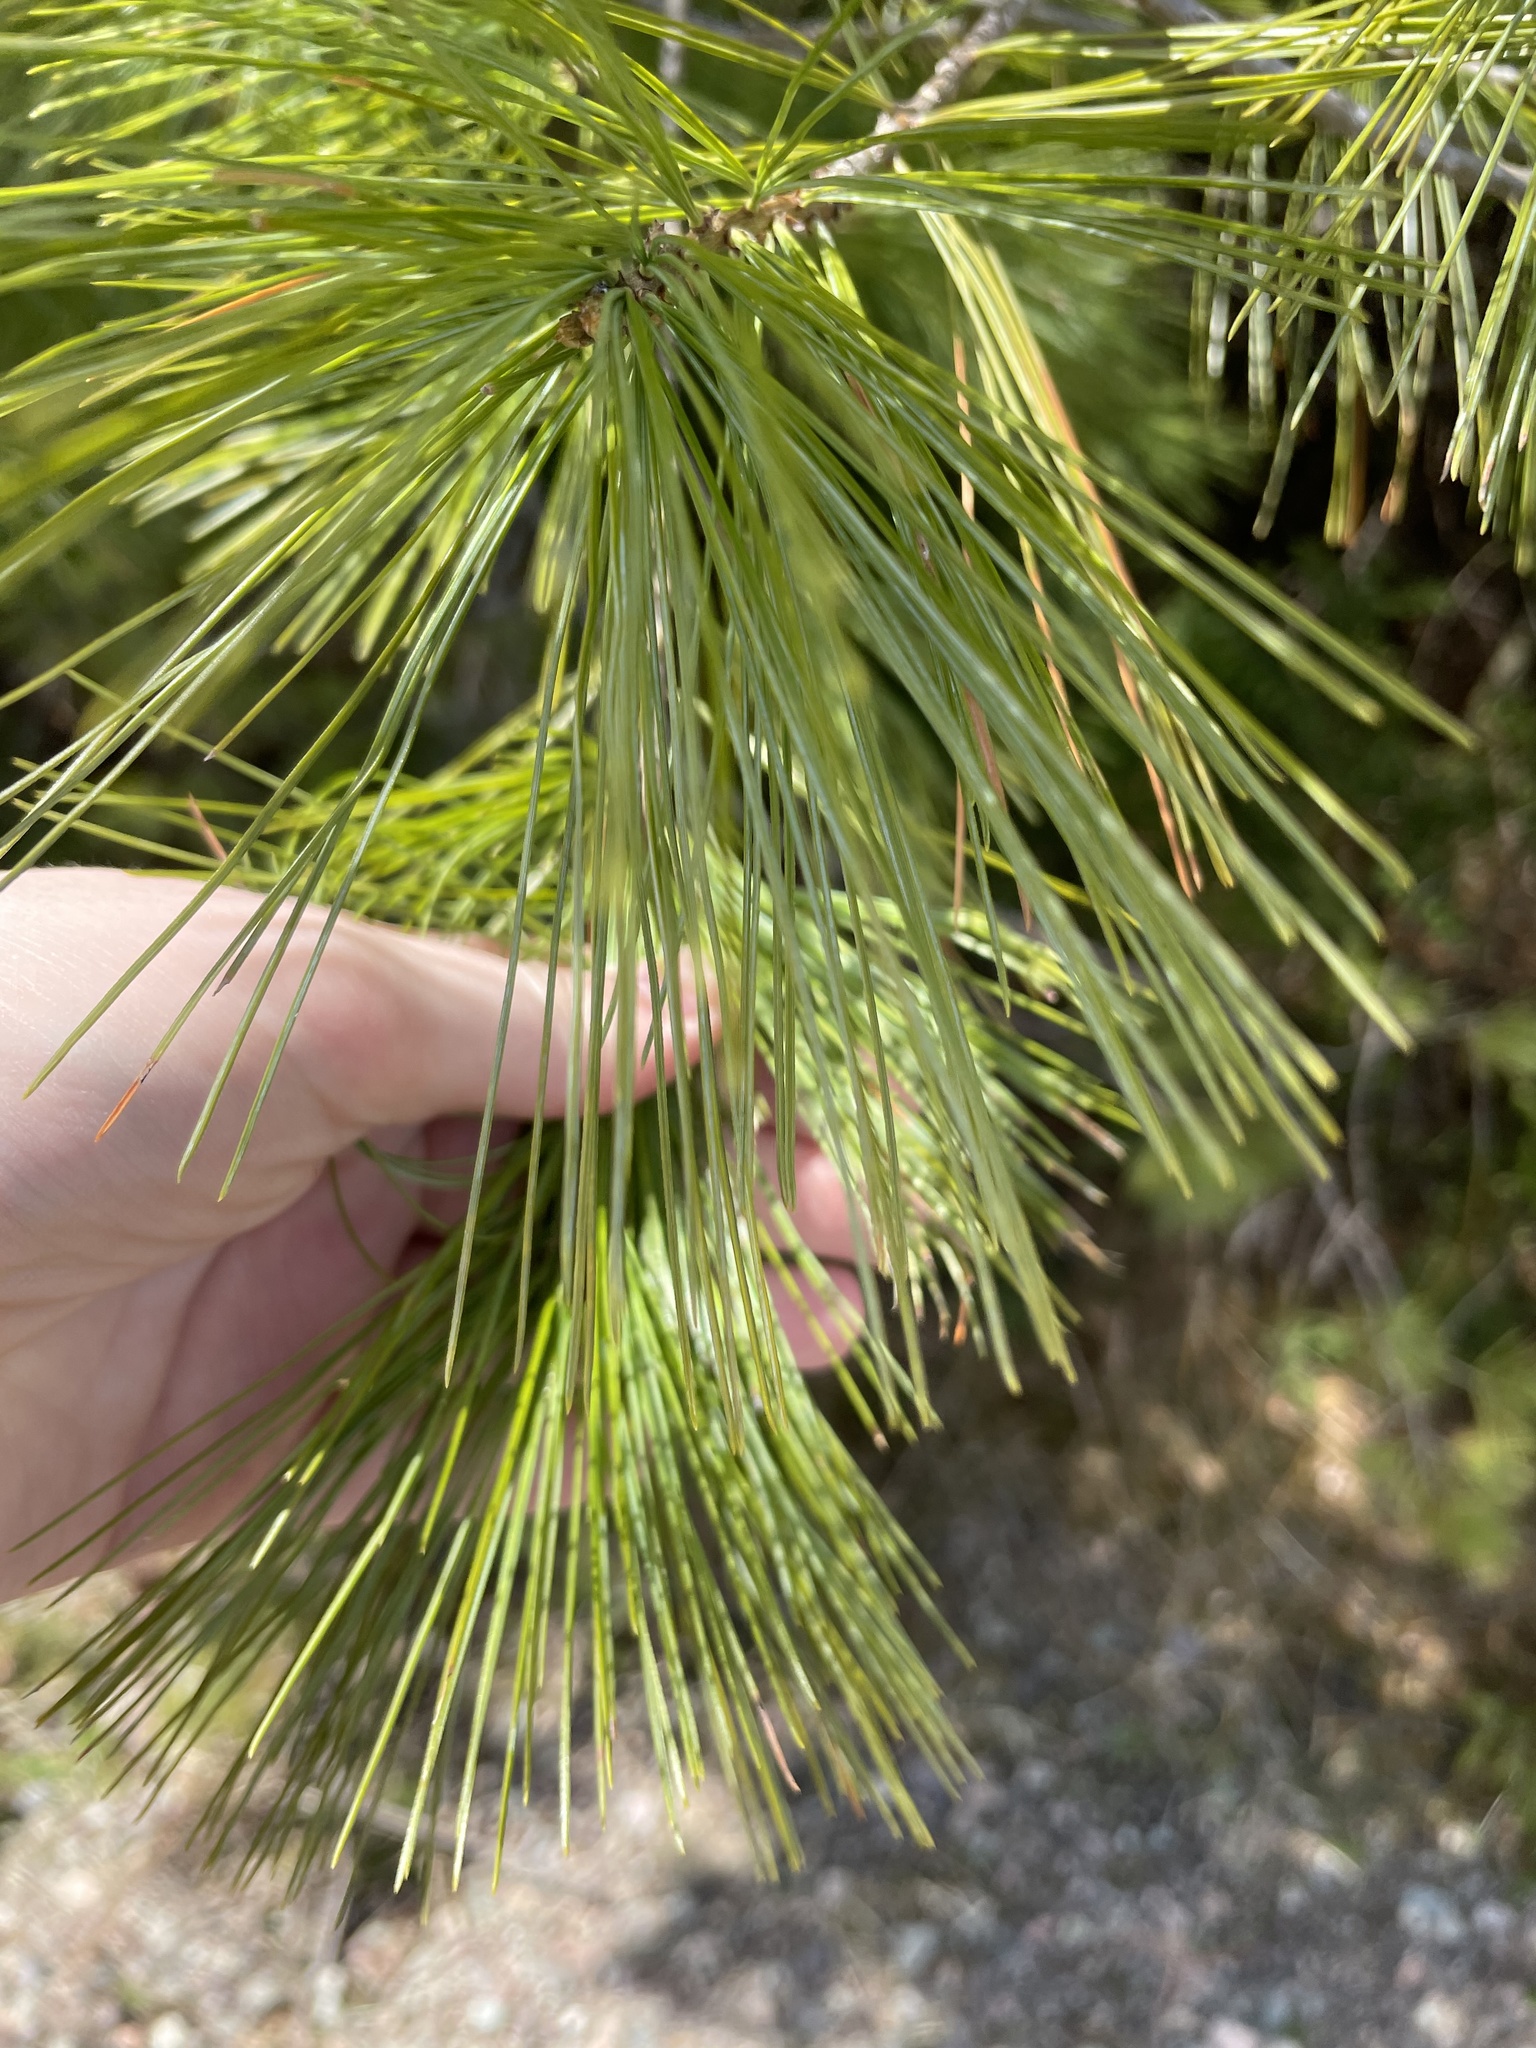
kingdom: Plantae
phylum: Tracheophyta
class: Pinopsida
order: Pinales
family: Pinaceae
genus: Pinus
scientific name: Pinus strobus
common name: Weymouth pine
